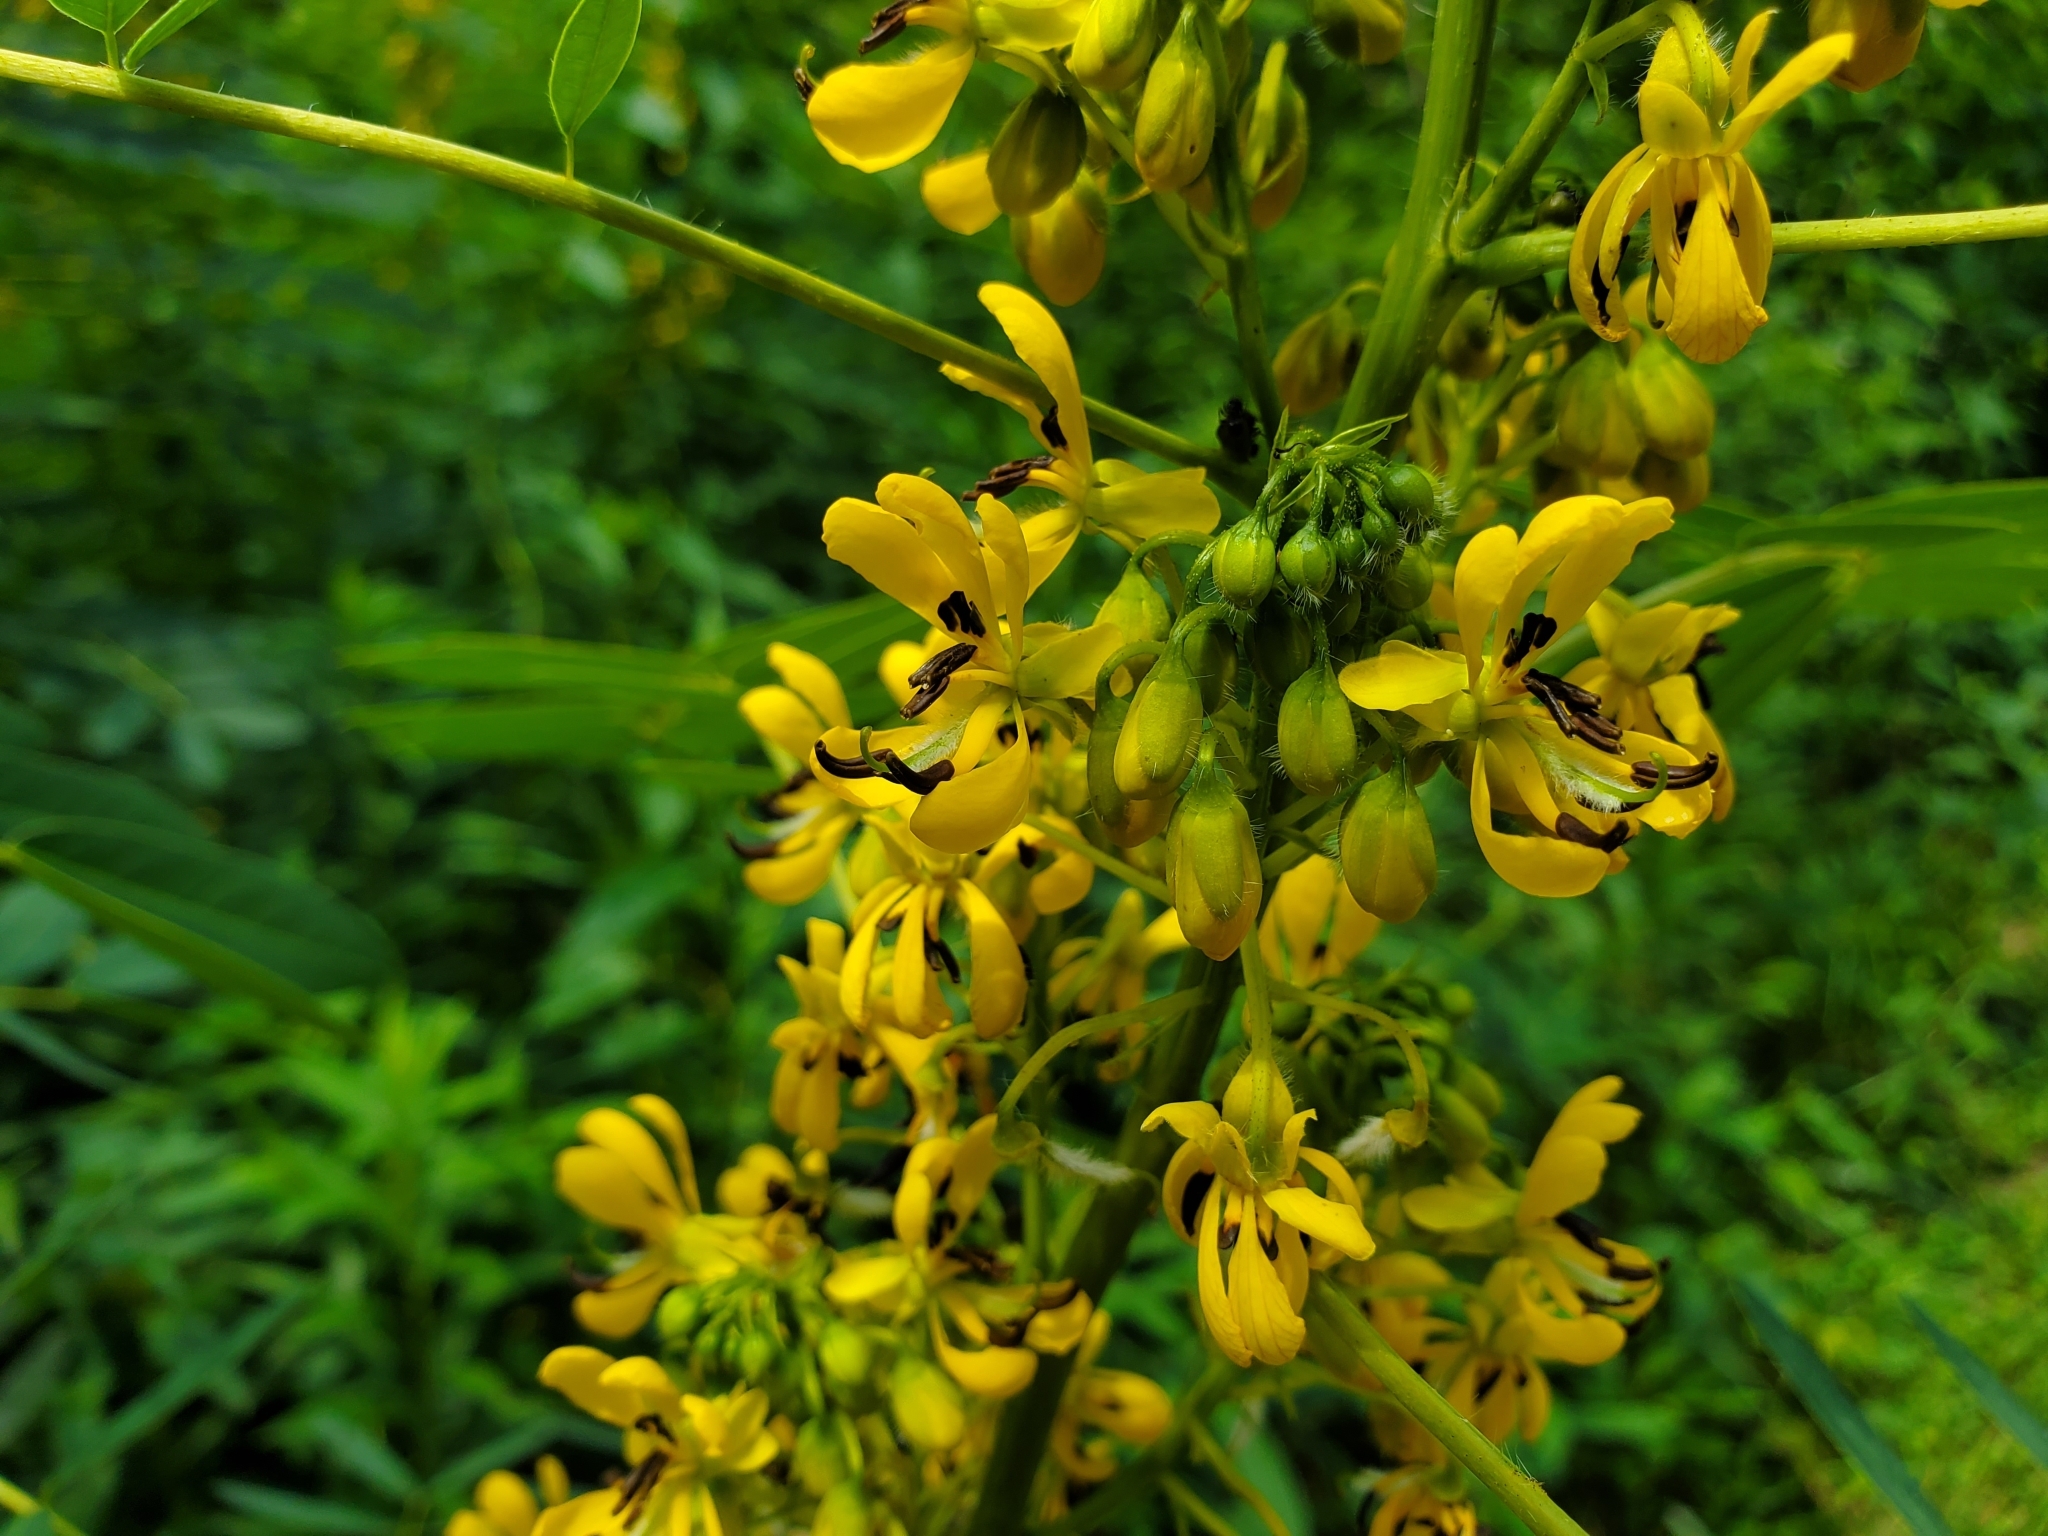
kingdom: Plantae
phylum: Tracheophyta
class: Magnoliopsida
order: Fabales
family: Fabaceae
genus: Senna
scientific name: Senna hebecarpa
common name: Wild senna
